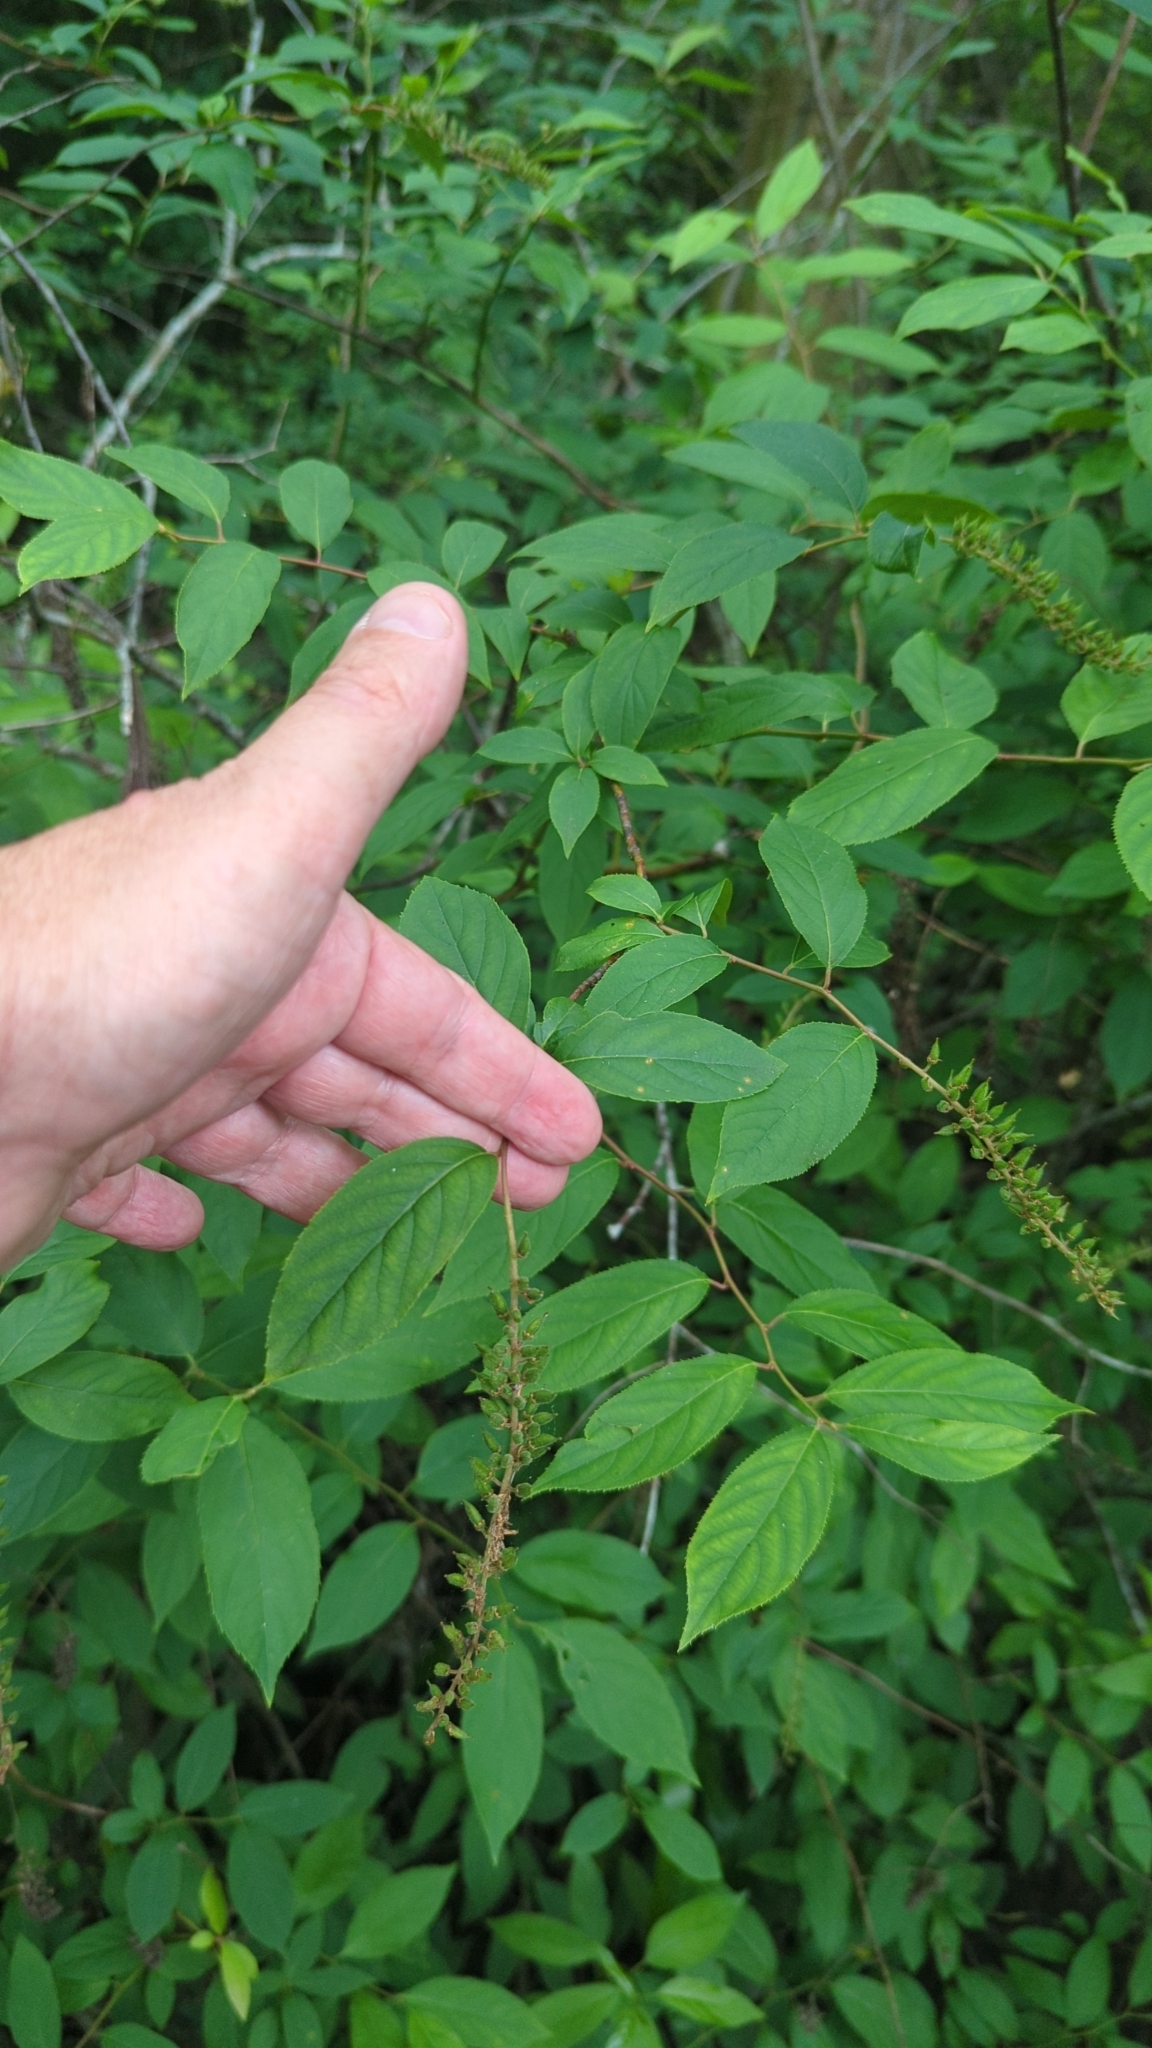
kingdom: Plantae
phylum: Tracheophyta
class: Magnoliopsida
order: Saxifragales
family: Iteaceae
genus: Itea
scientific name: Itea virginica
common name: Sweetspire
